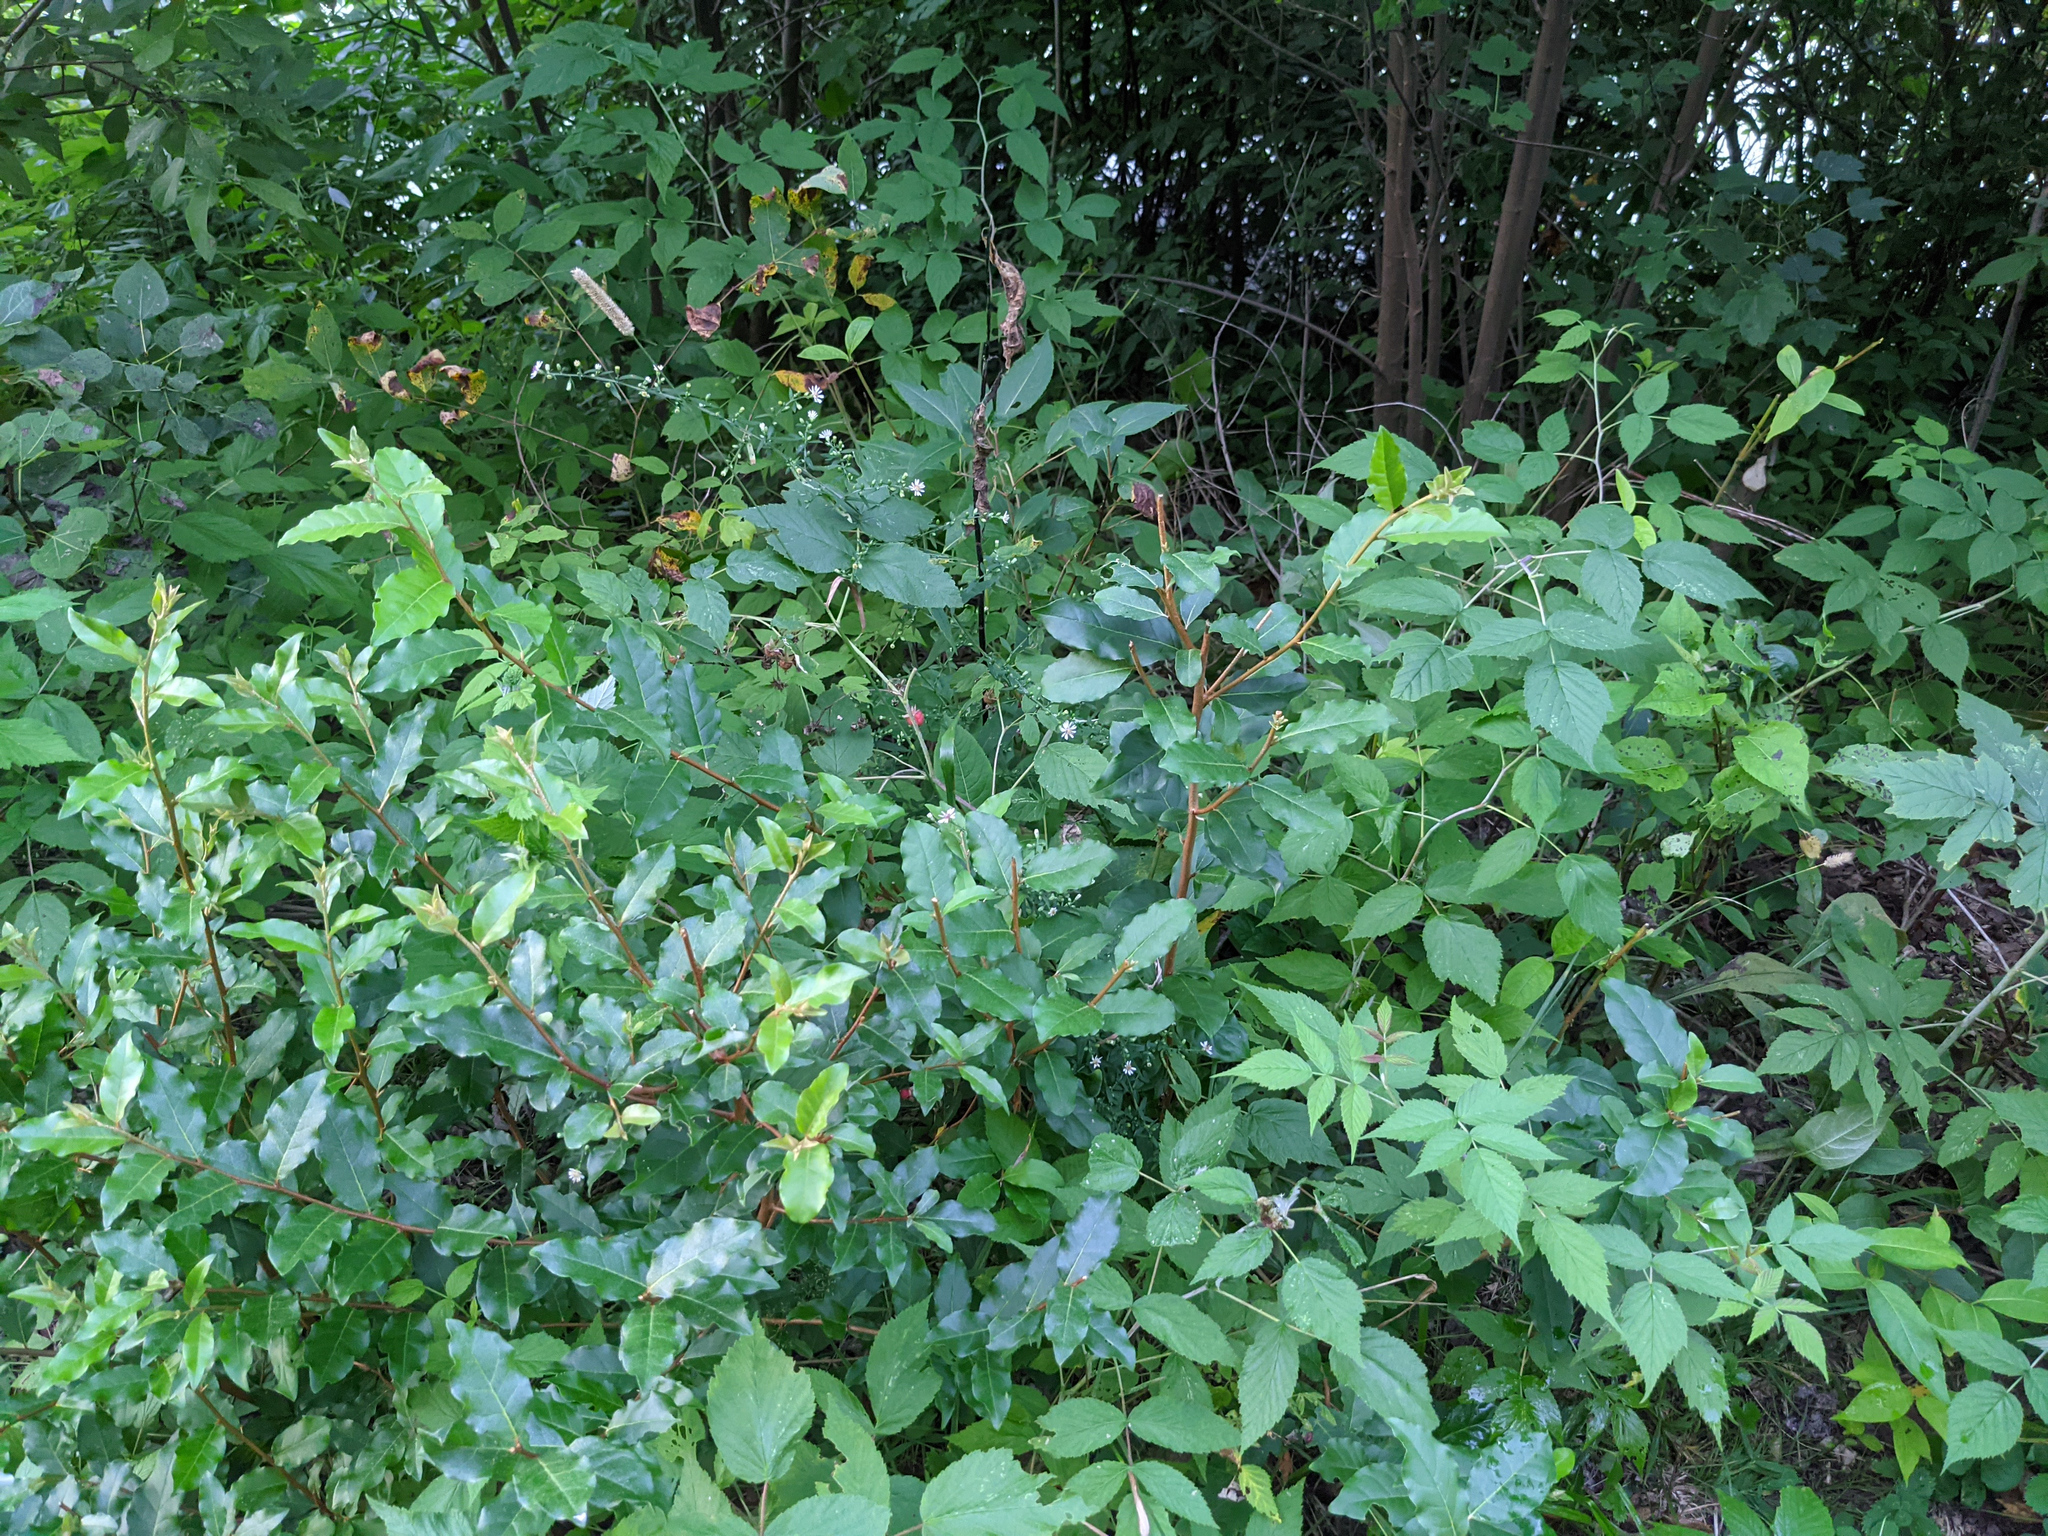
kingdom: Plantae
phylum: Tracheophyta
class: Magnoliopsida
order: Rosales
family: Elaeagnaceae
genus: Elaeagnus
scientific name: Elaeagnus umbellata
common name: Autumn olive
